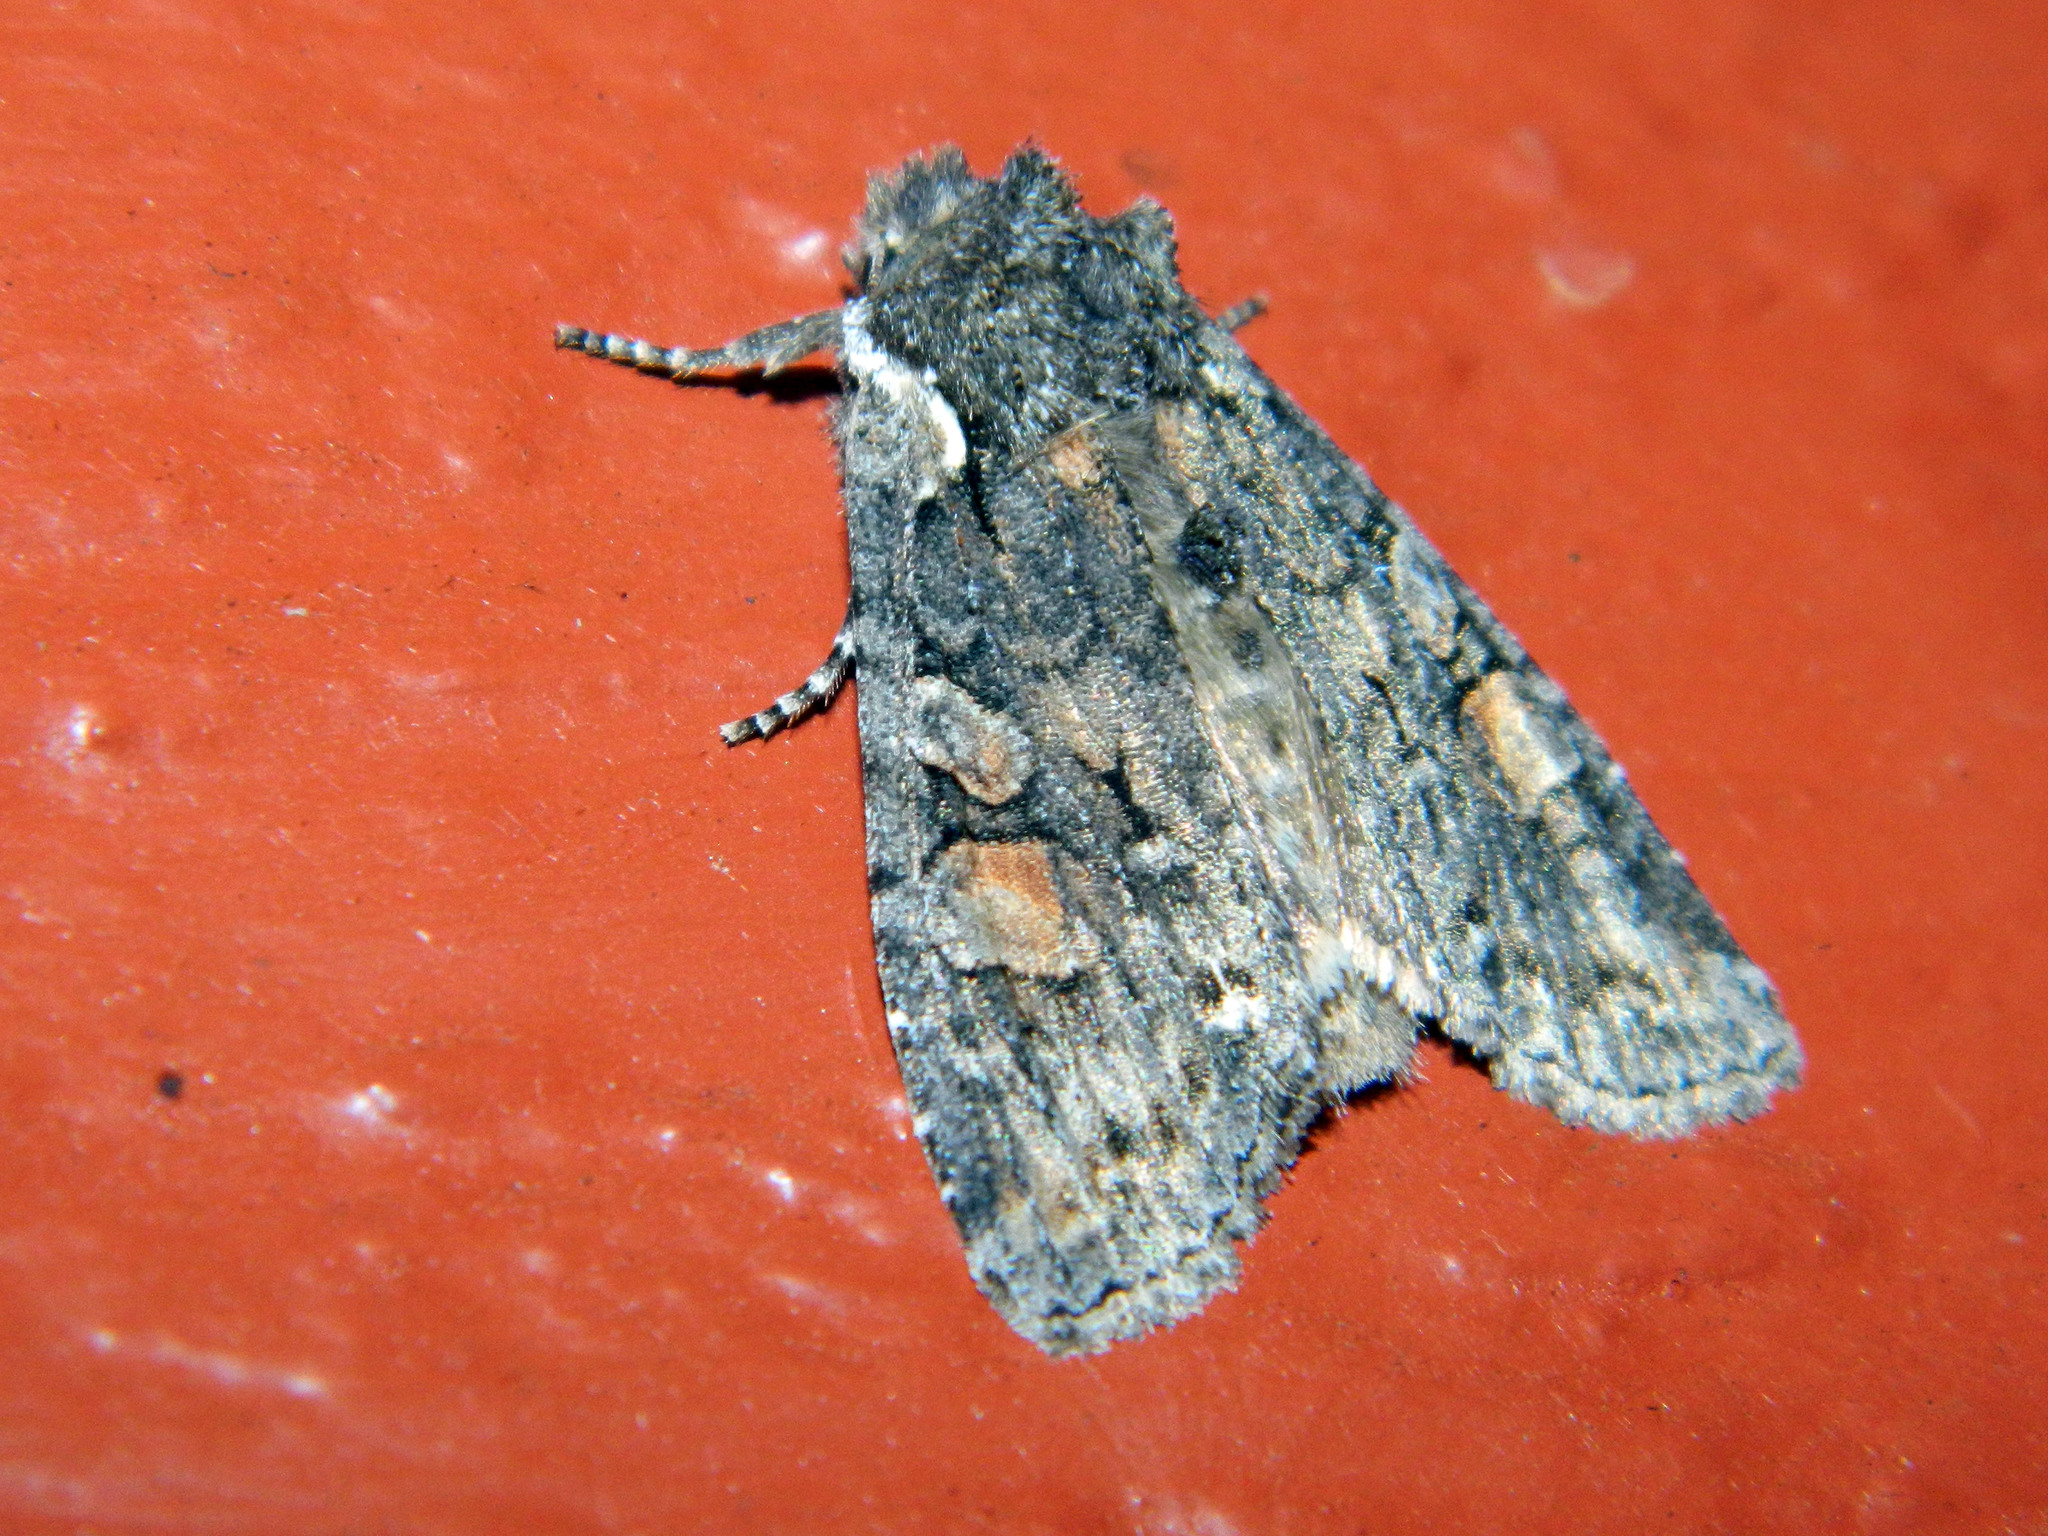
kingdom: Animalia
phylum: Arthropoda
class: Insecta
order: Lepidoptera
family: Noctuidae
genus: Lithophane
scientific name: Lithophane pexata
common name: Plush-naped pinion moth
